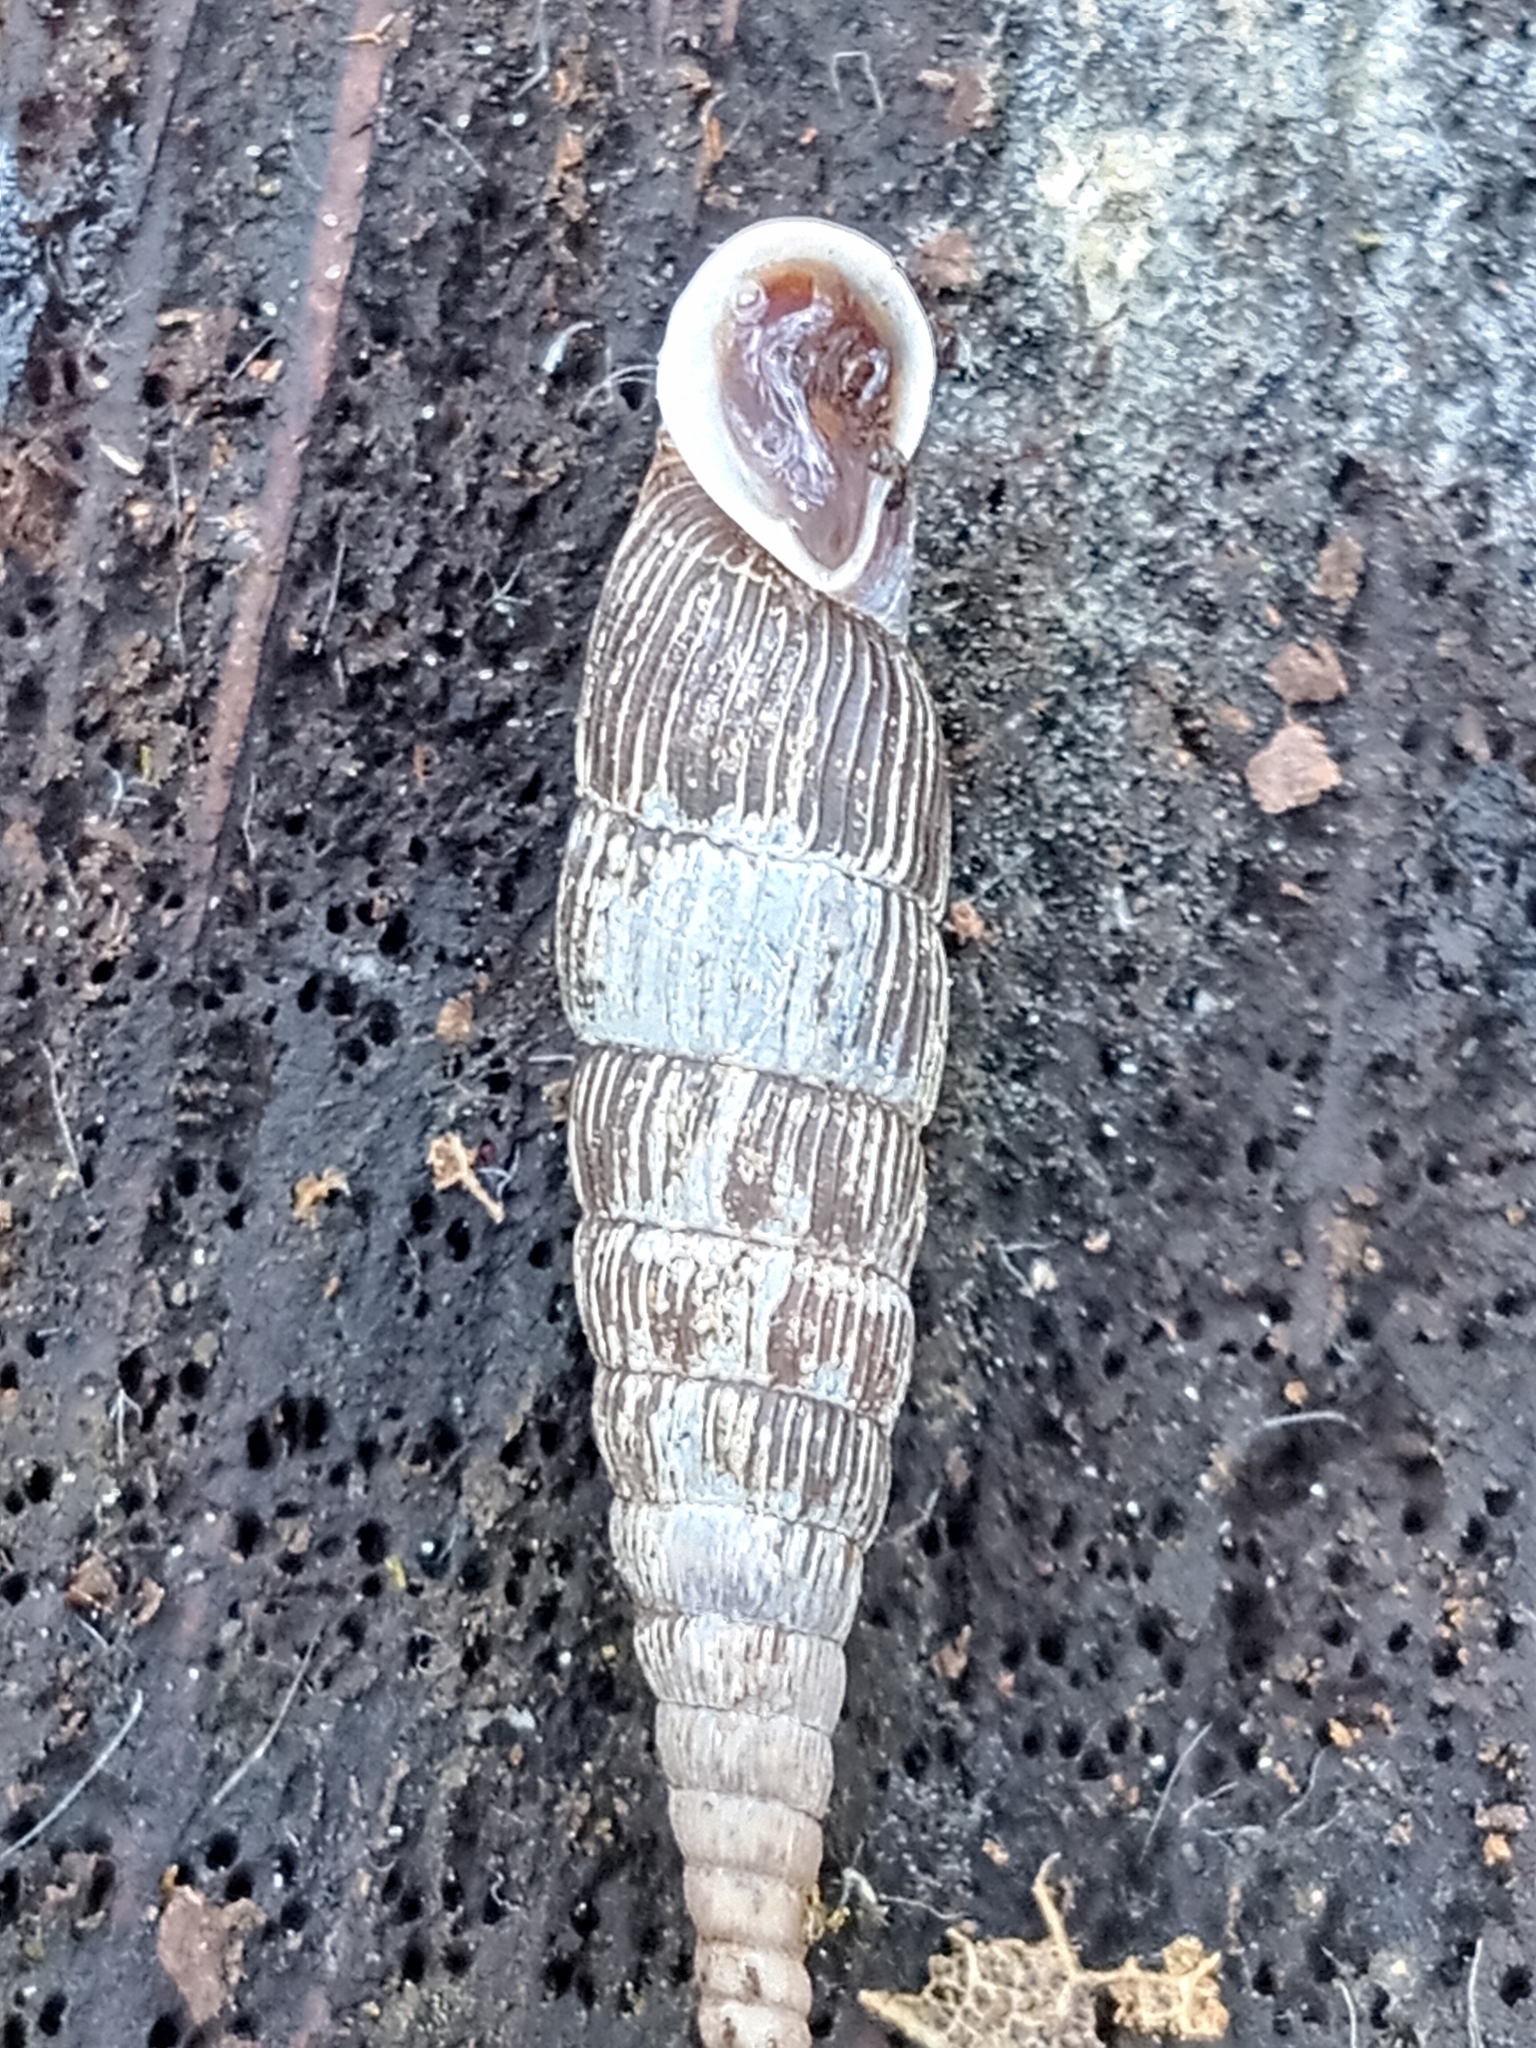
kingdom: Animalia
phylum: Mollusca
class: Gastropoda
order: Stylommatophora
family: Clausiliidae
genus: Strigillaria
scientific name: Strigillaria cana
